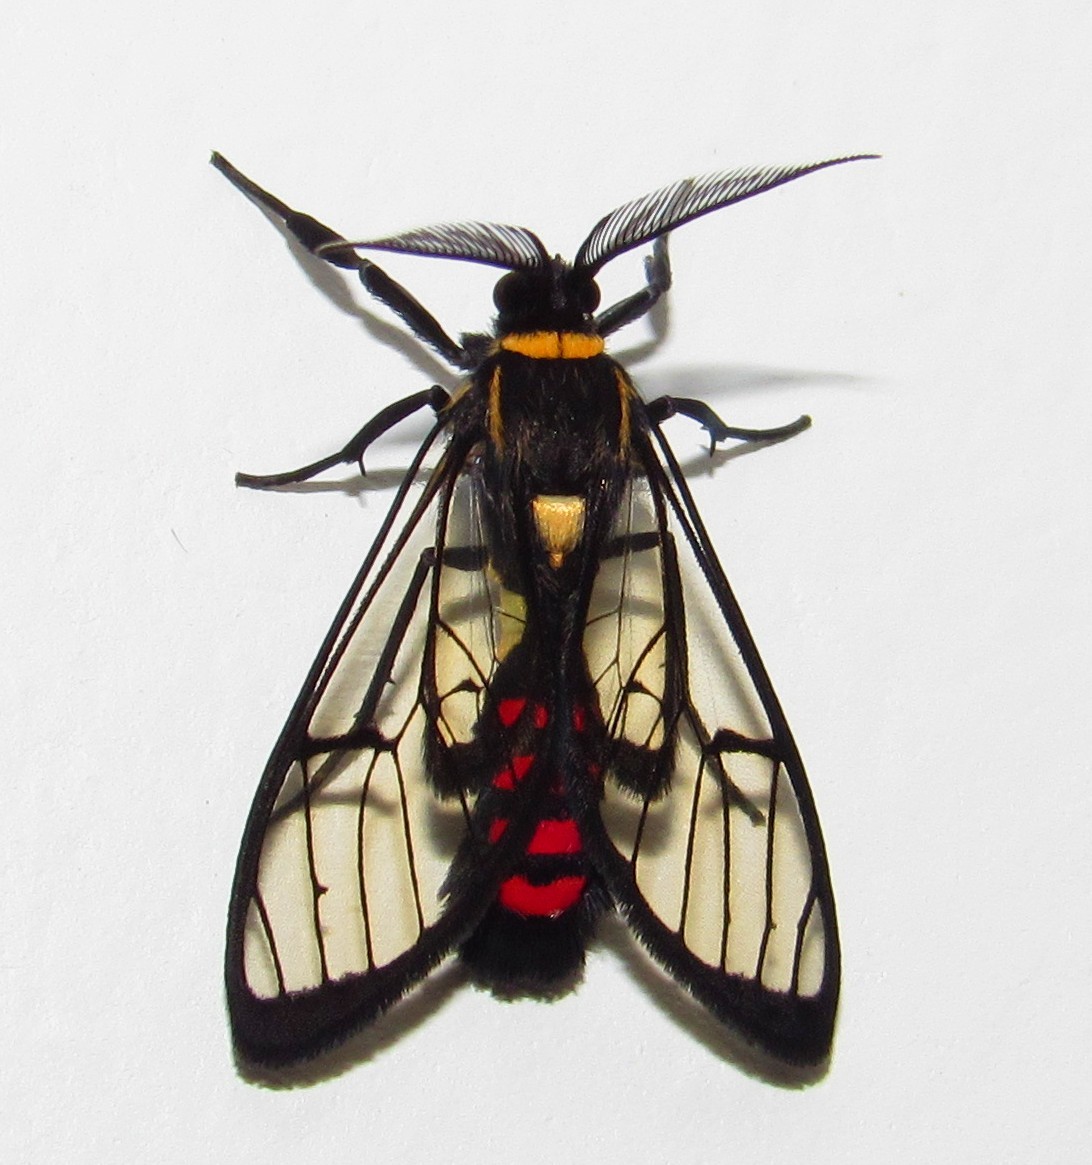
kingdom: Animalia
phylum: Arthropoda
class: Insecta
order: Lepidoptera
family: Erebidae
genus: Argyroeides
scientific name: Argyroeides sanguinea
